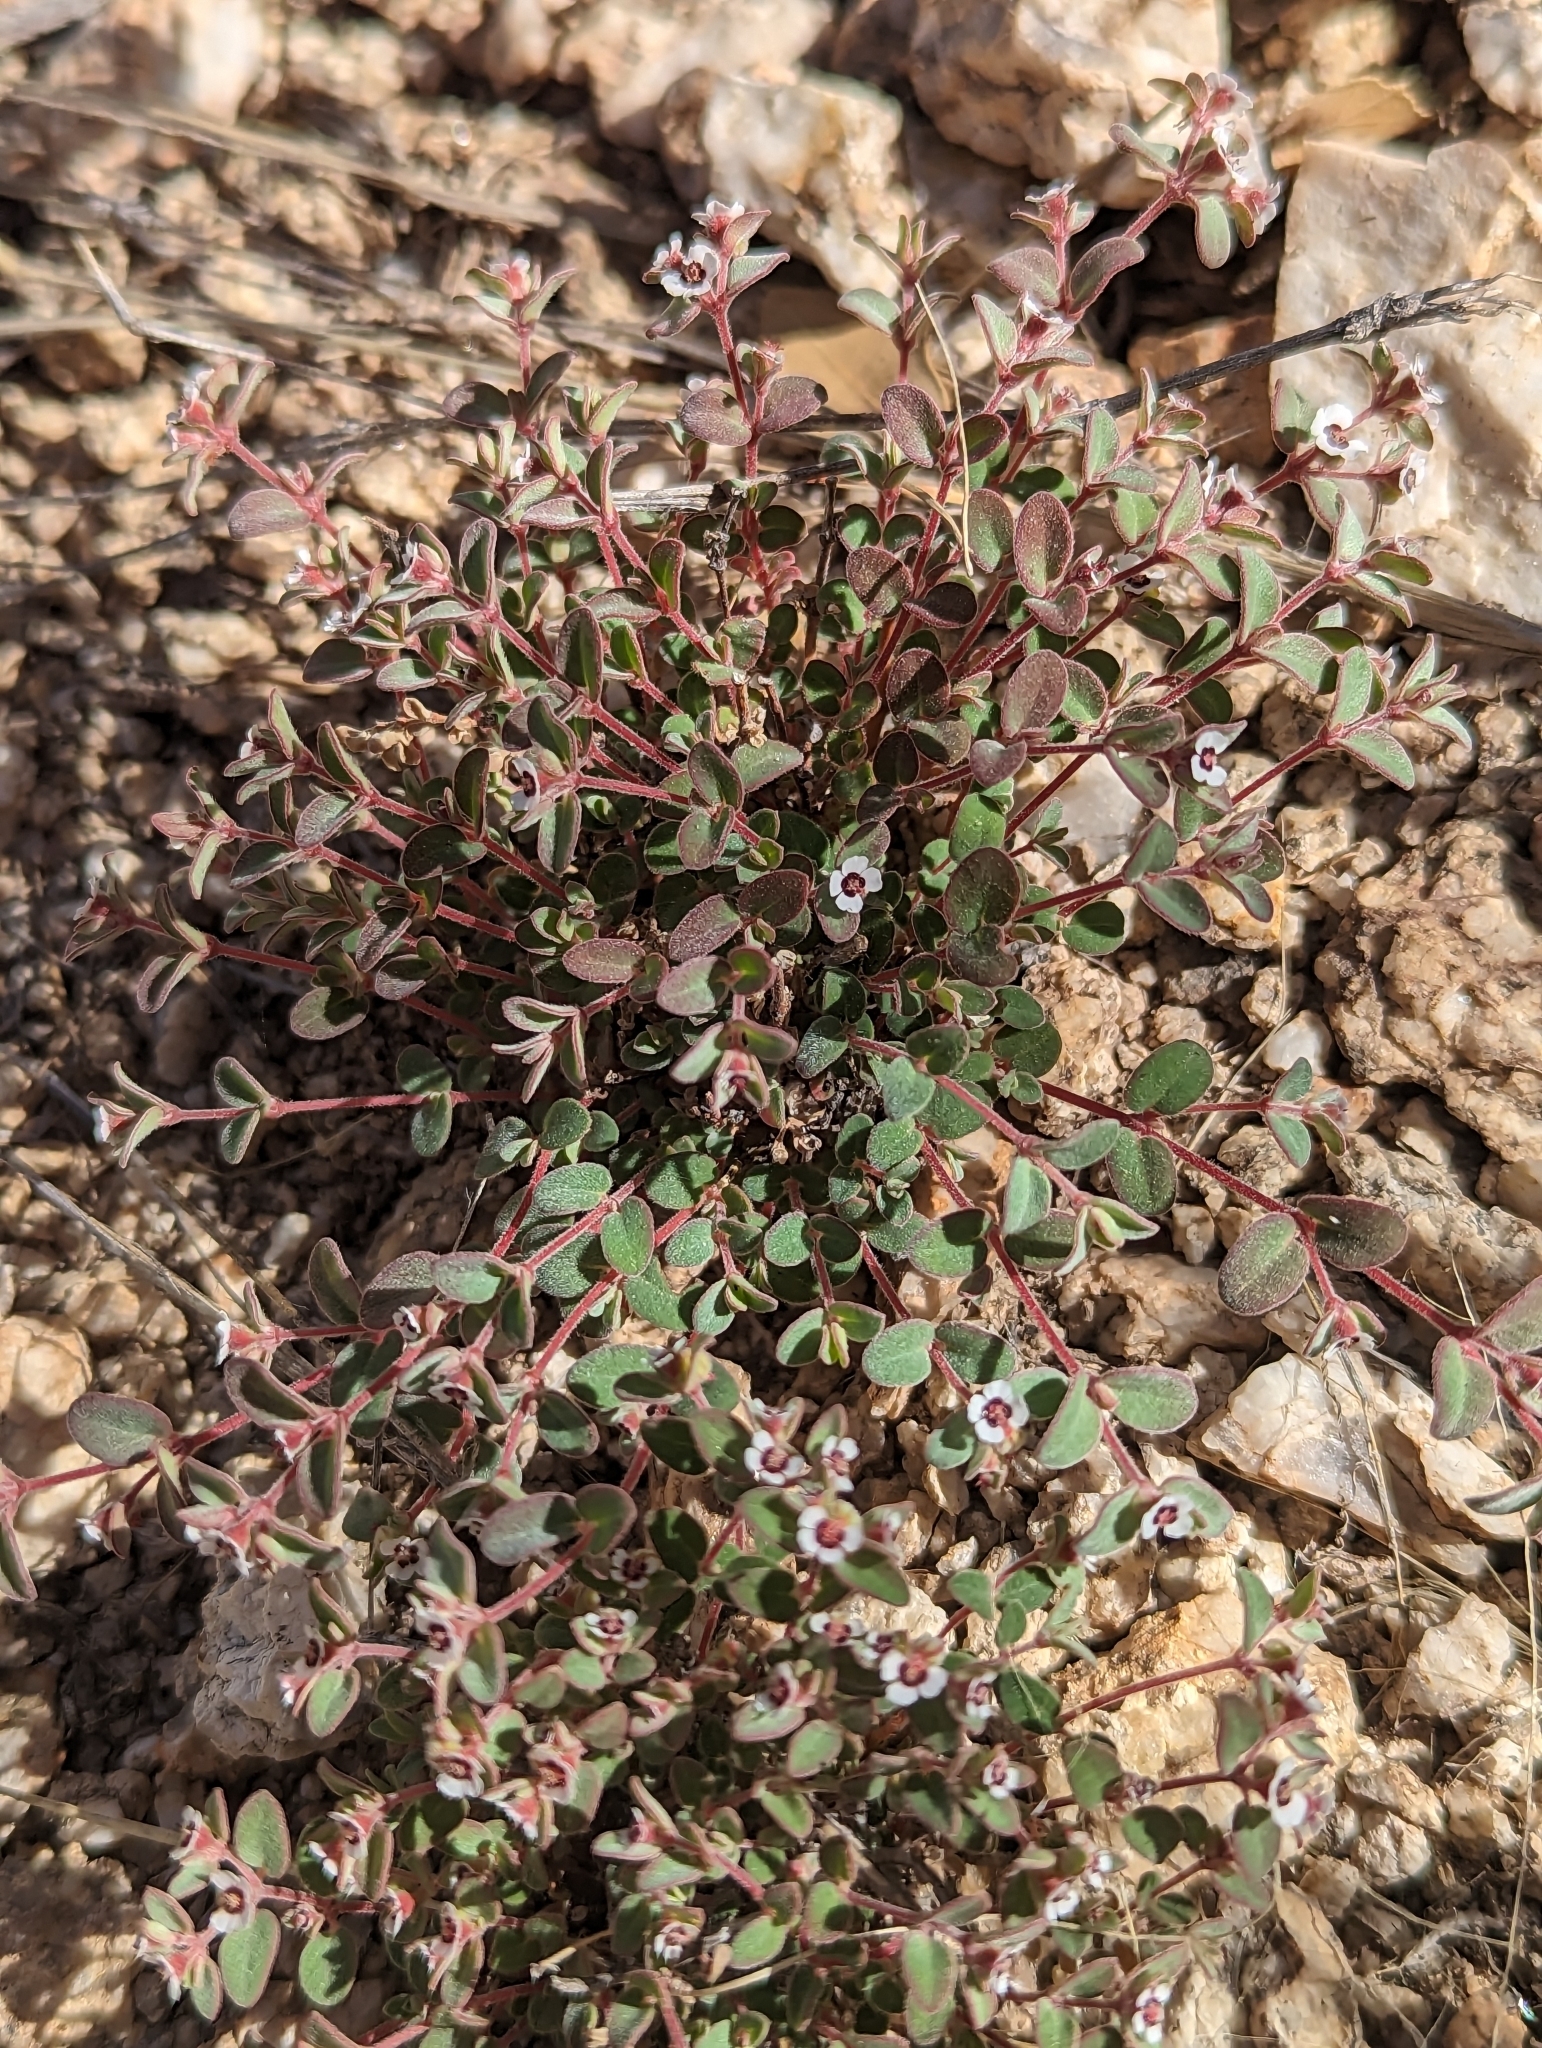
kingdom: Plantae
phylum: Tracheophyta
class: Magnoliopsida
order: Malpighiales
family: Euphorbiaceae
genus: Euphorbia
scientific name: Euphorbia melanadenia
